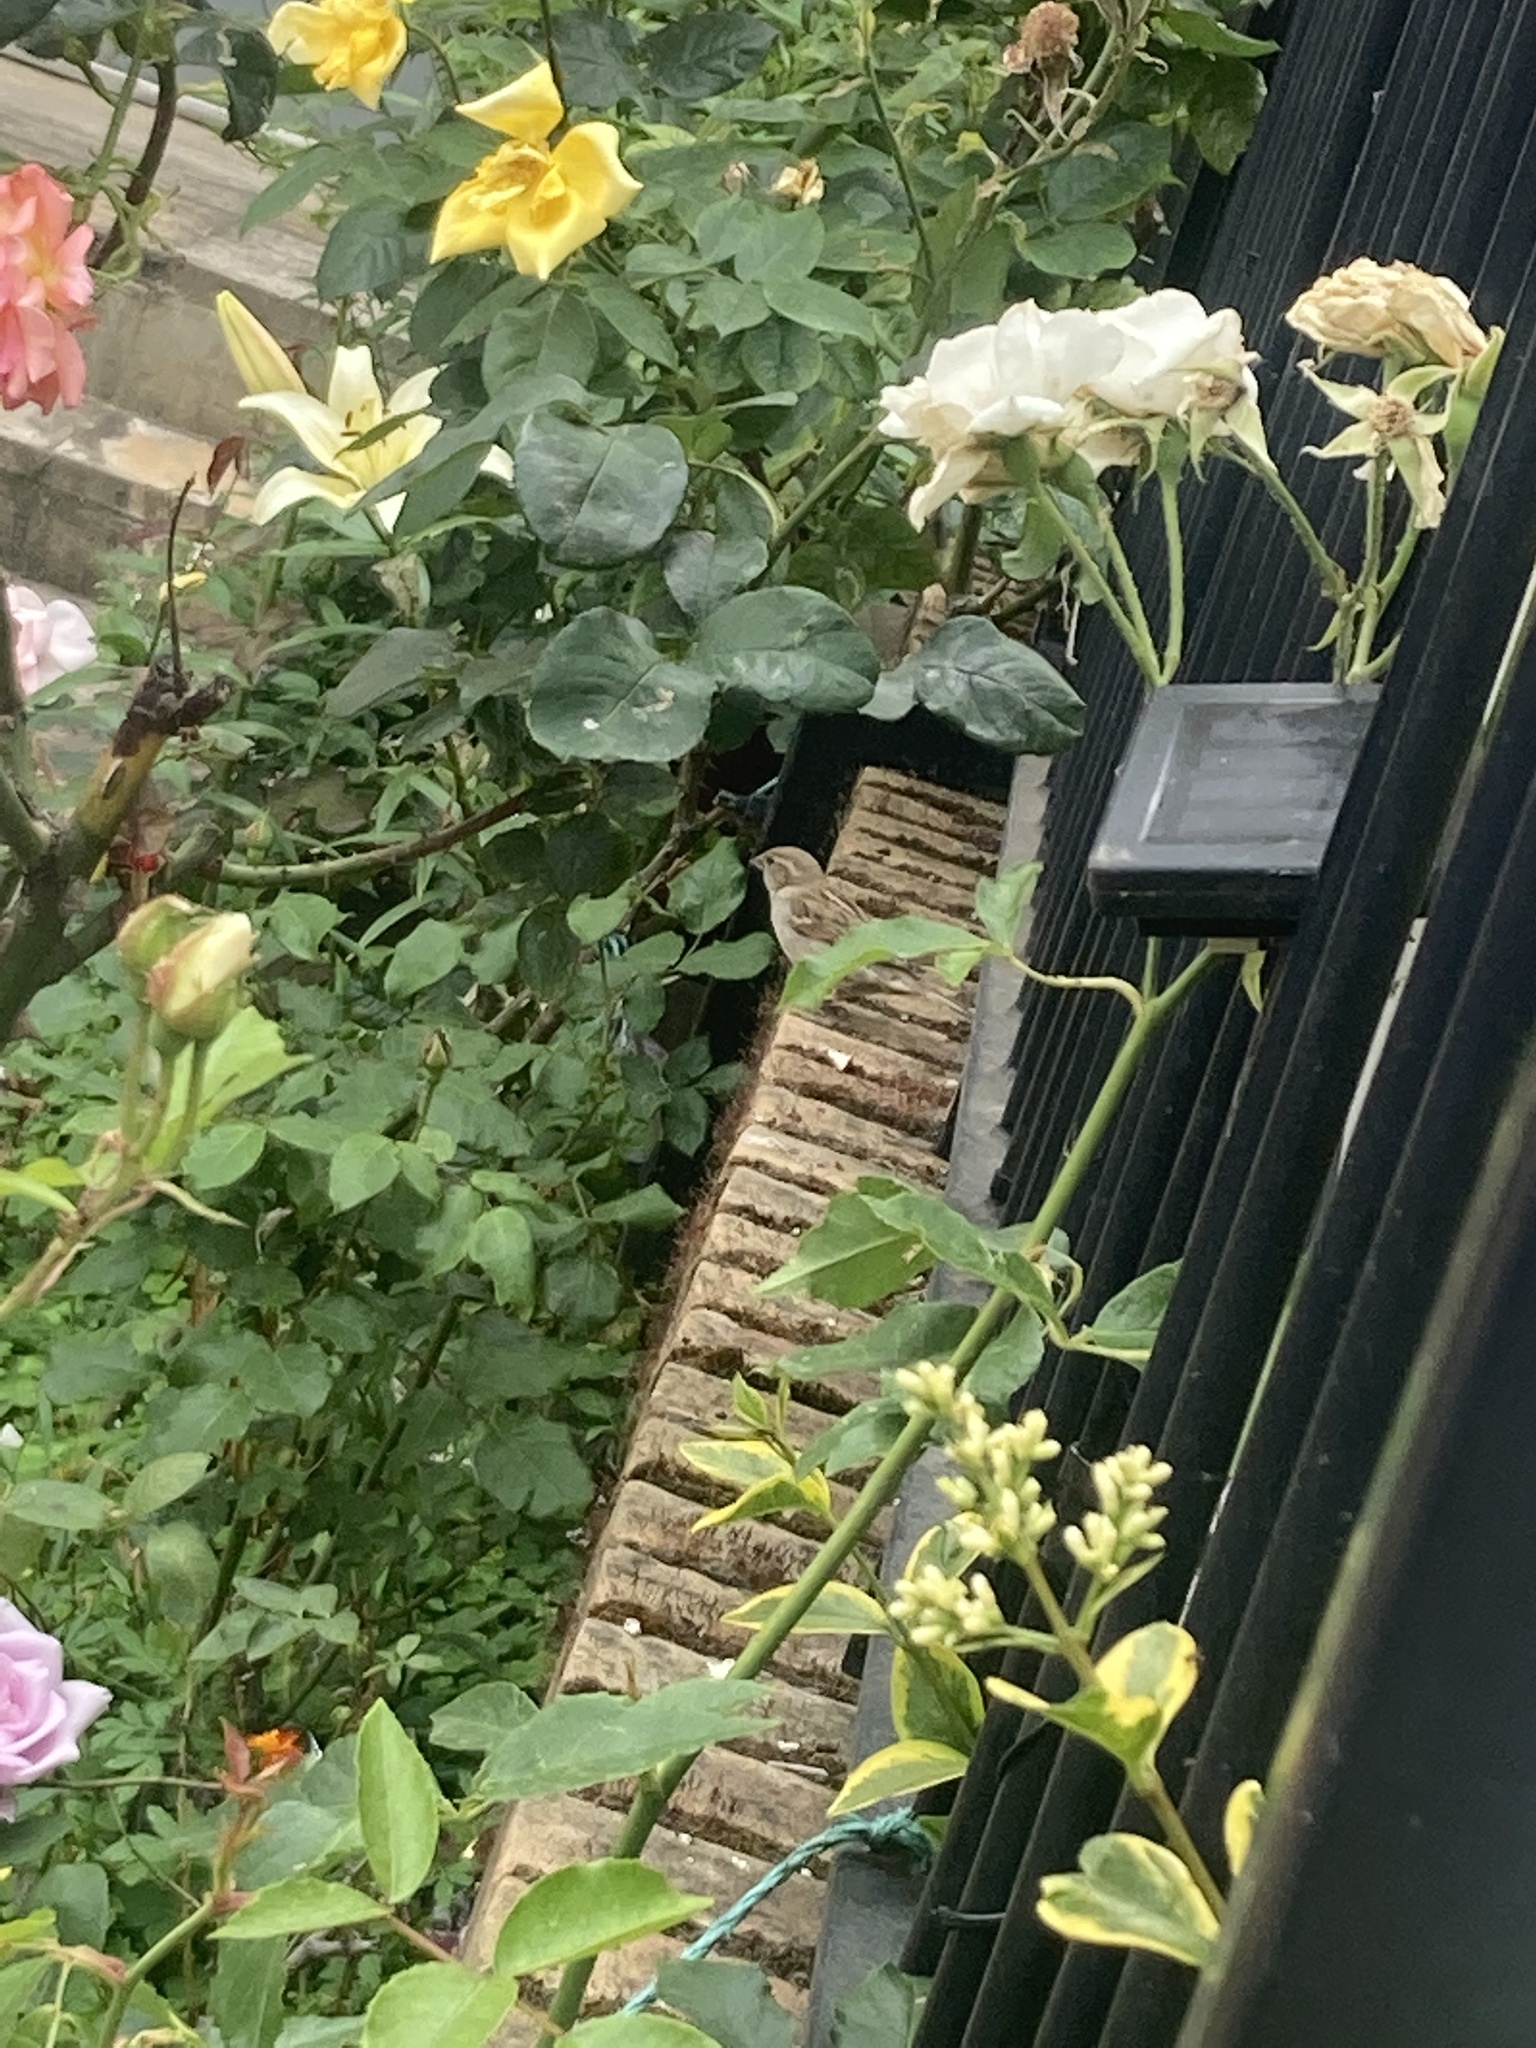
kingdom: Animalia
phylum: Chordata
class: Aves
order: Passeriformes
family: Passeridae
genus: Passer
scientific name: Passer domesticus
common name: House sparrow
